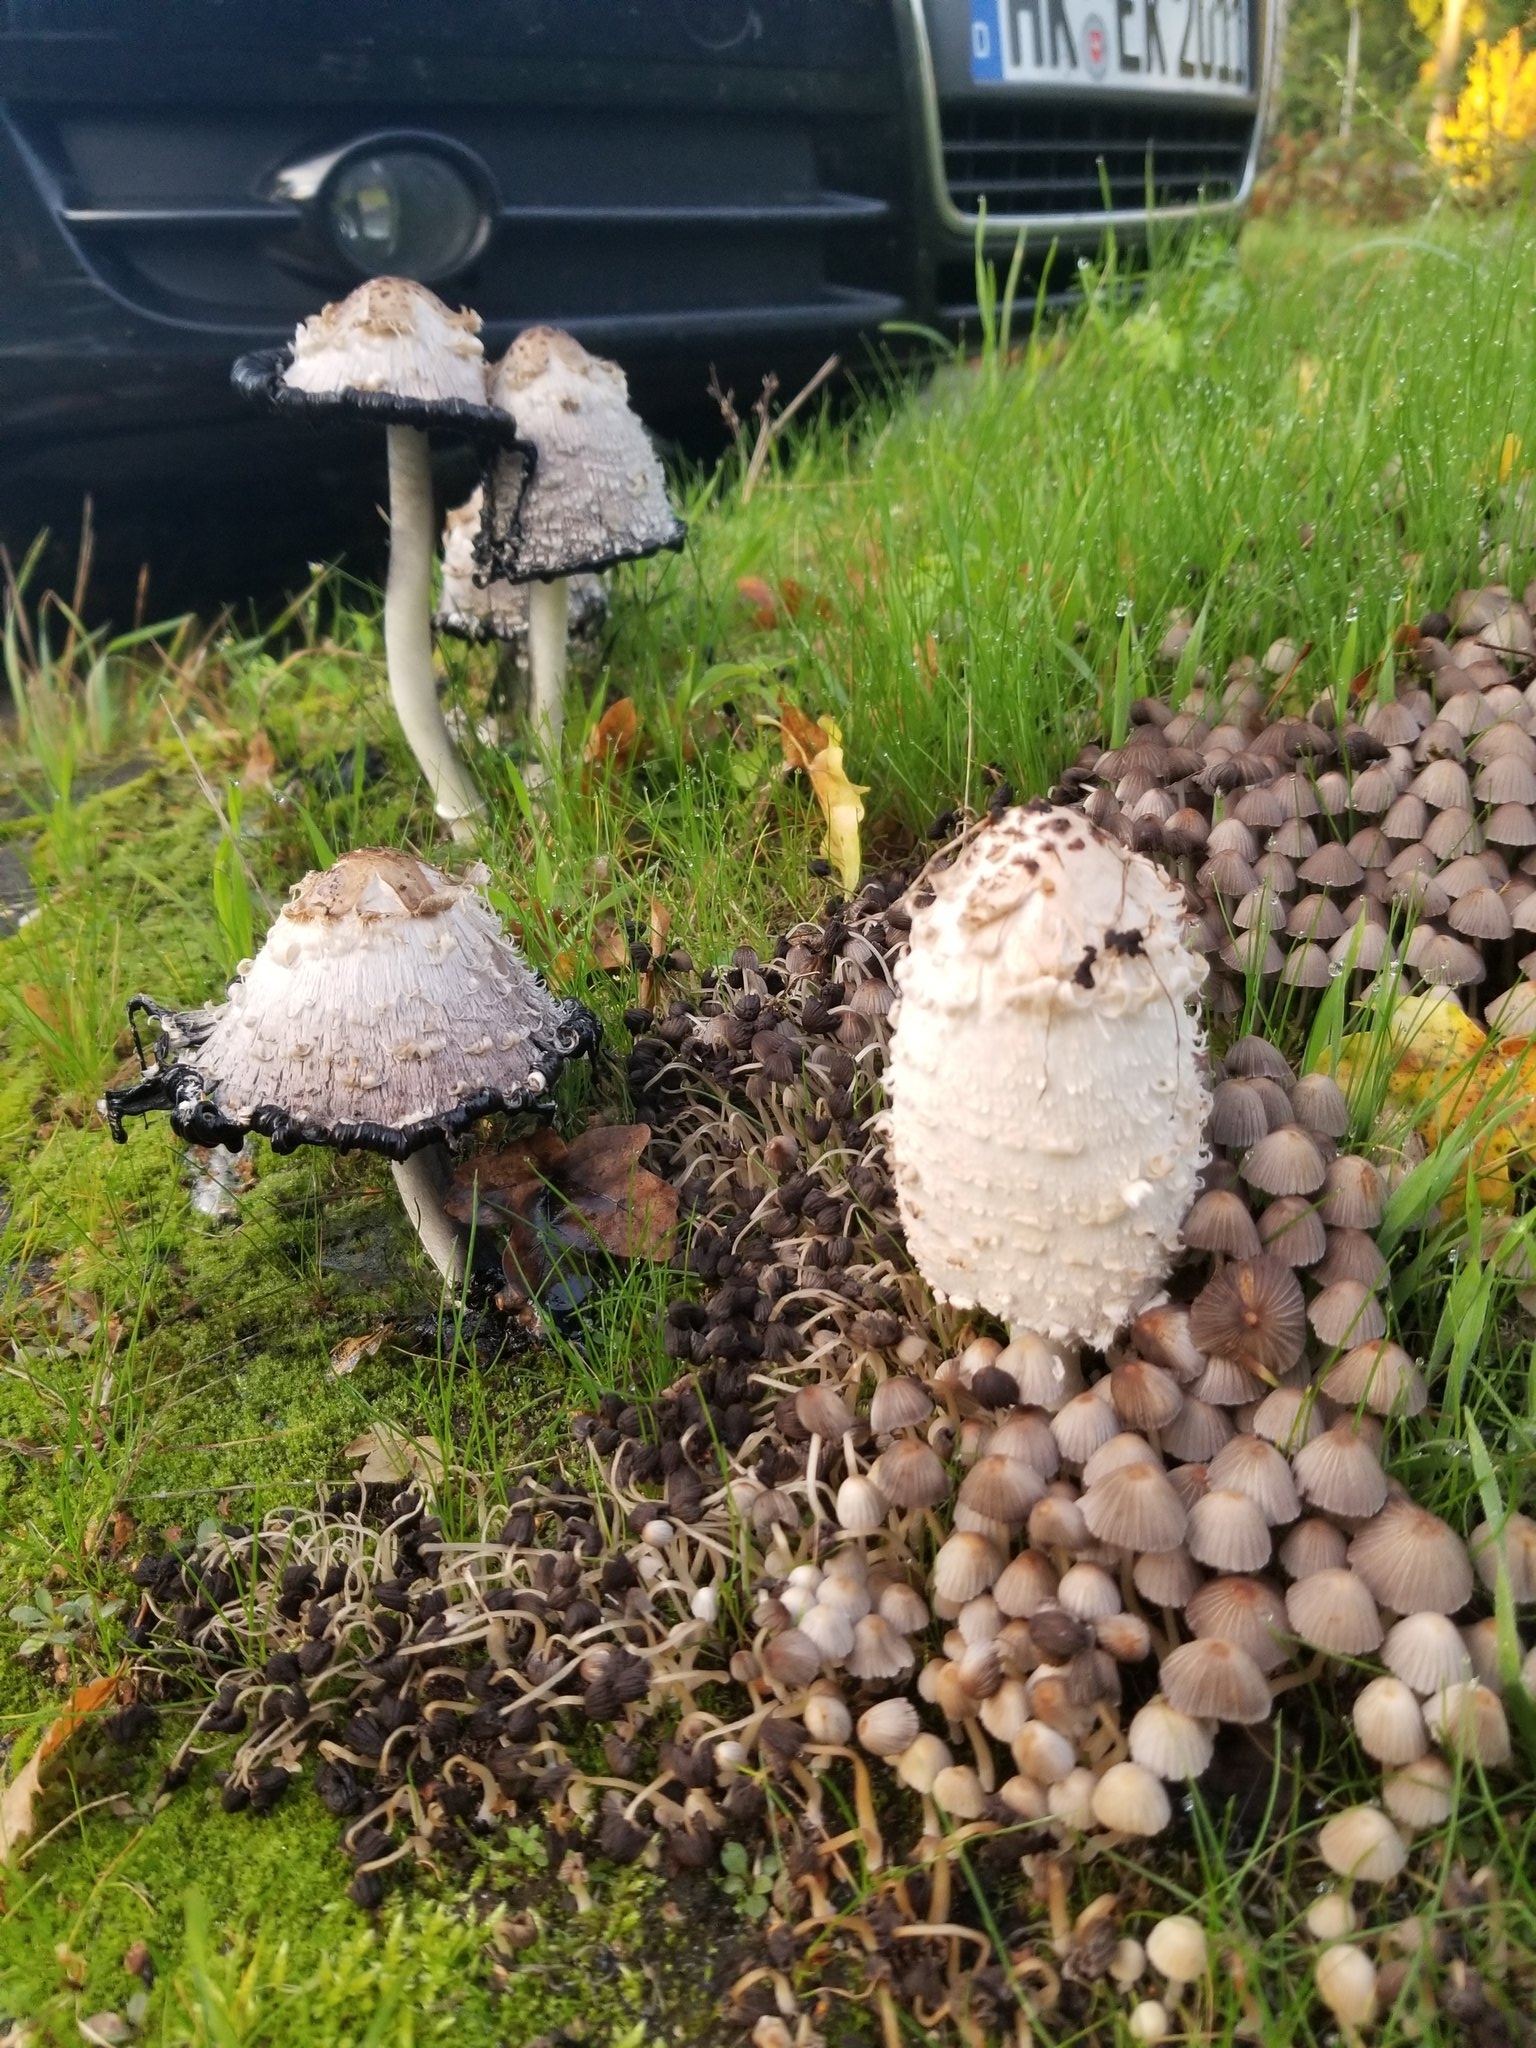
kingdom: Fungi
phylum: Basidiomycota
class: Agaricomycetes
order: Agaricales
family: Agaricaceae
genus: Coprinus
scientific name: Coprinus comatus
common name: Lawyer's wig
